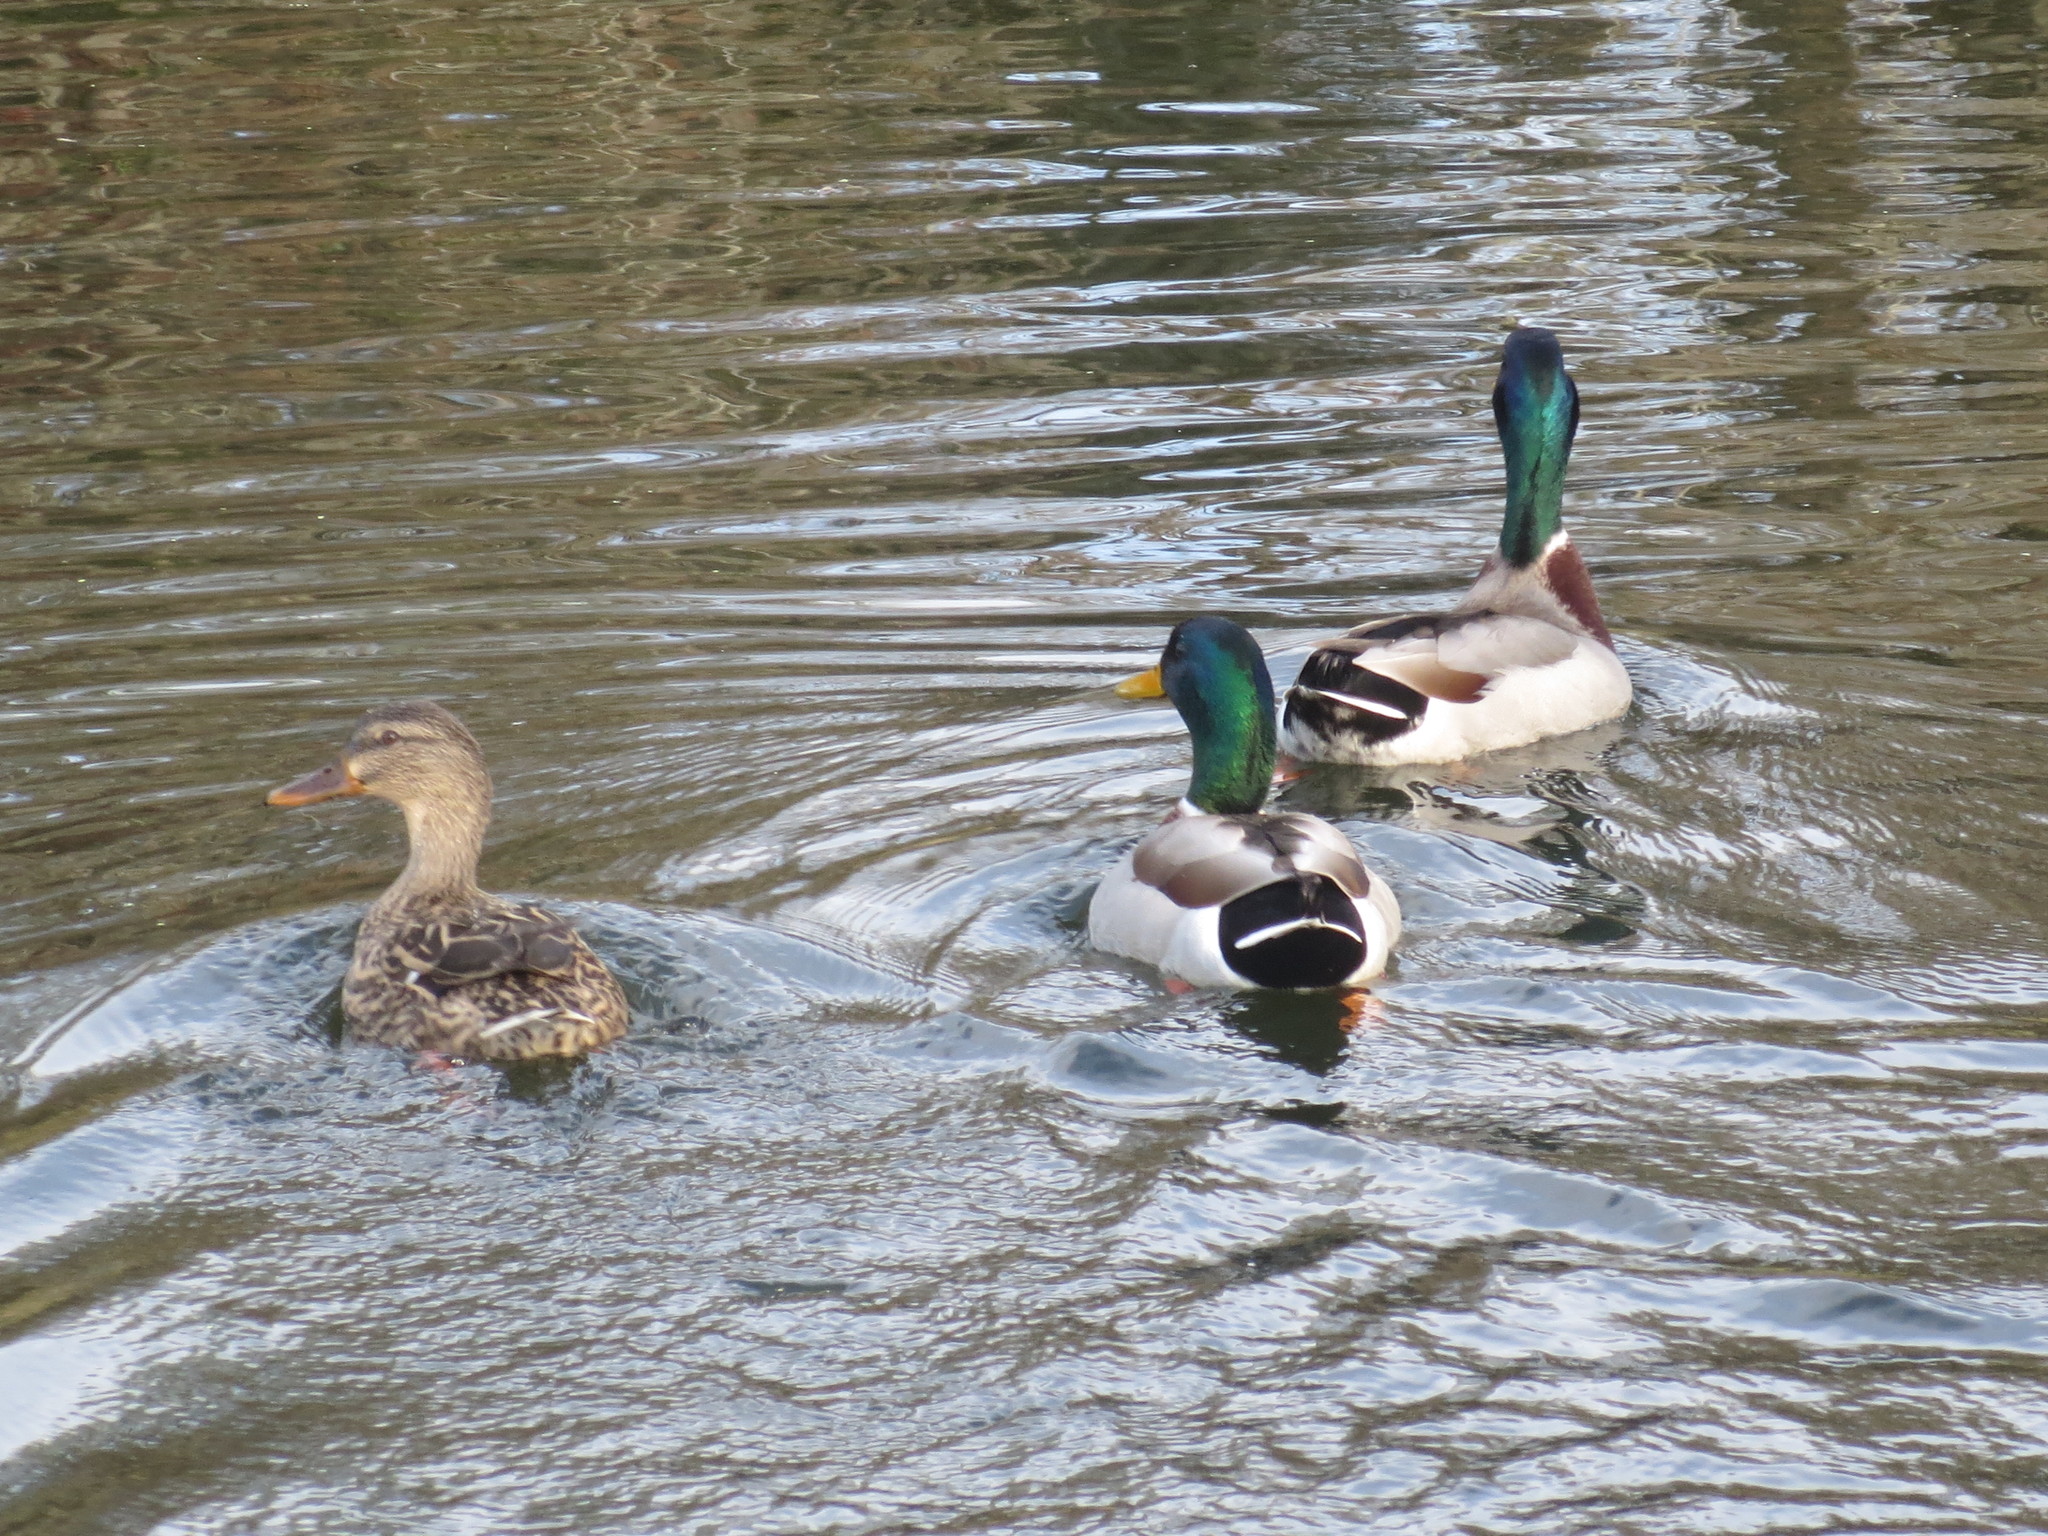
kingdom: Animalia
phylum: Chordata
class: Aves
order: Anseriformes
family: Anatidae
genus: Anas
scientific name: Anas platyrhynchos
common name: Mallard
